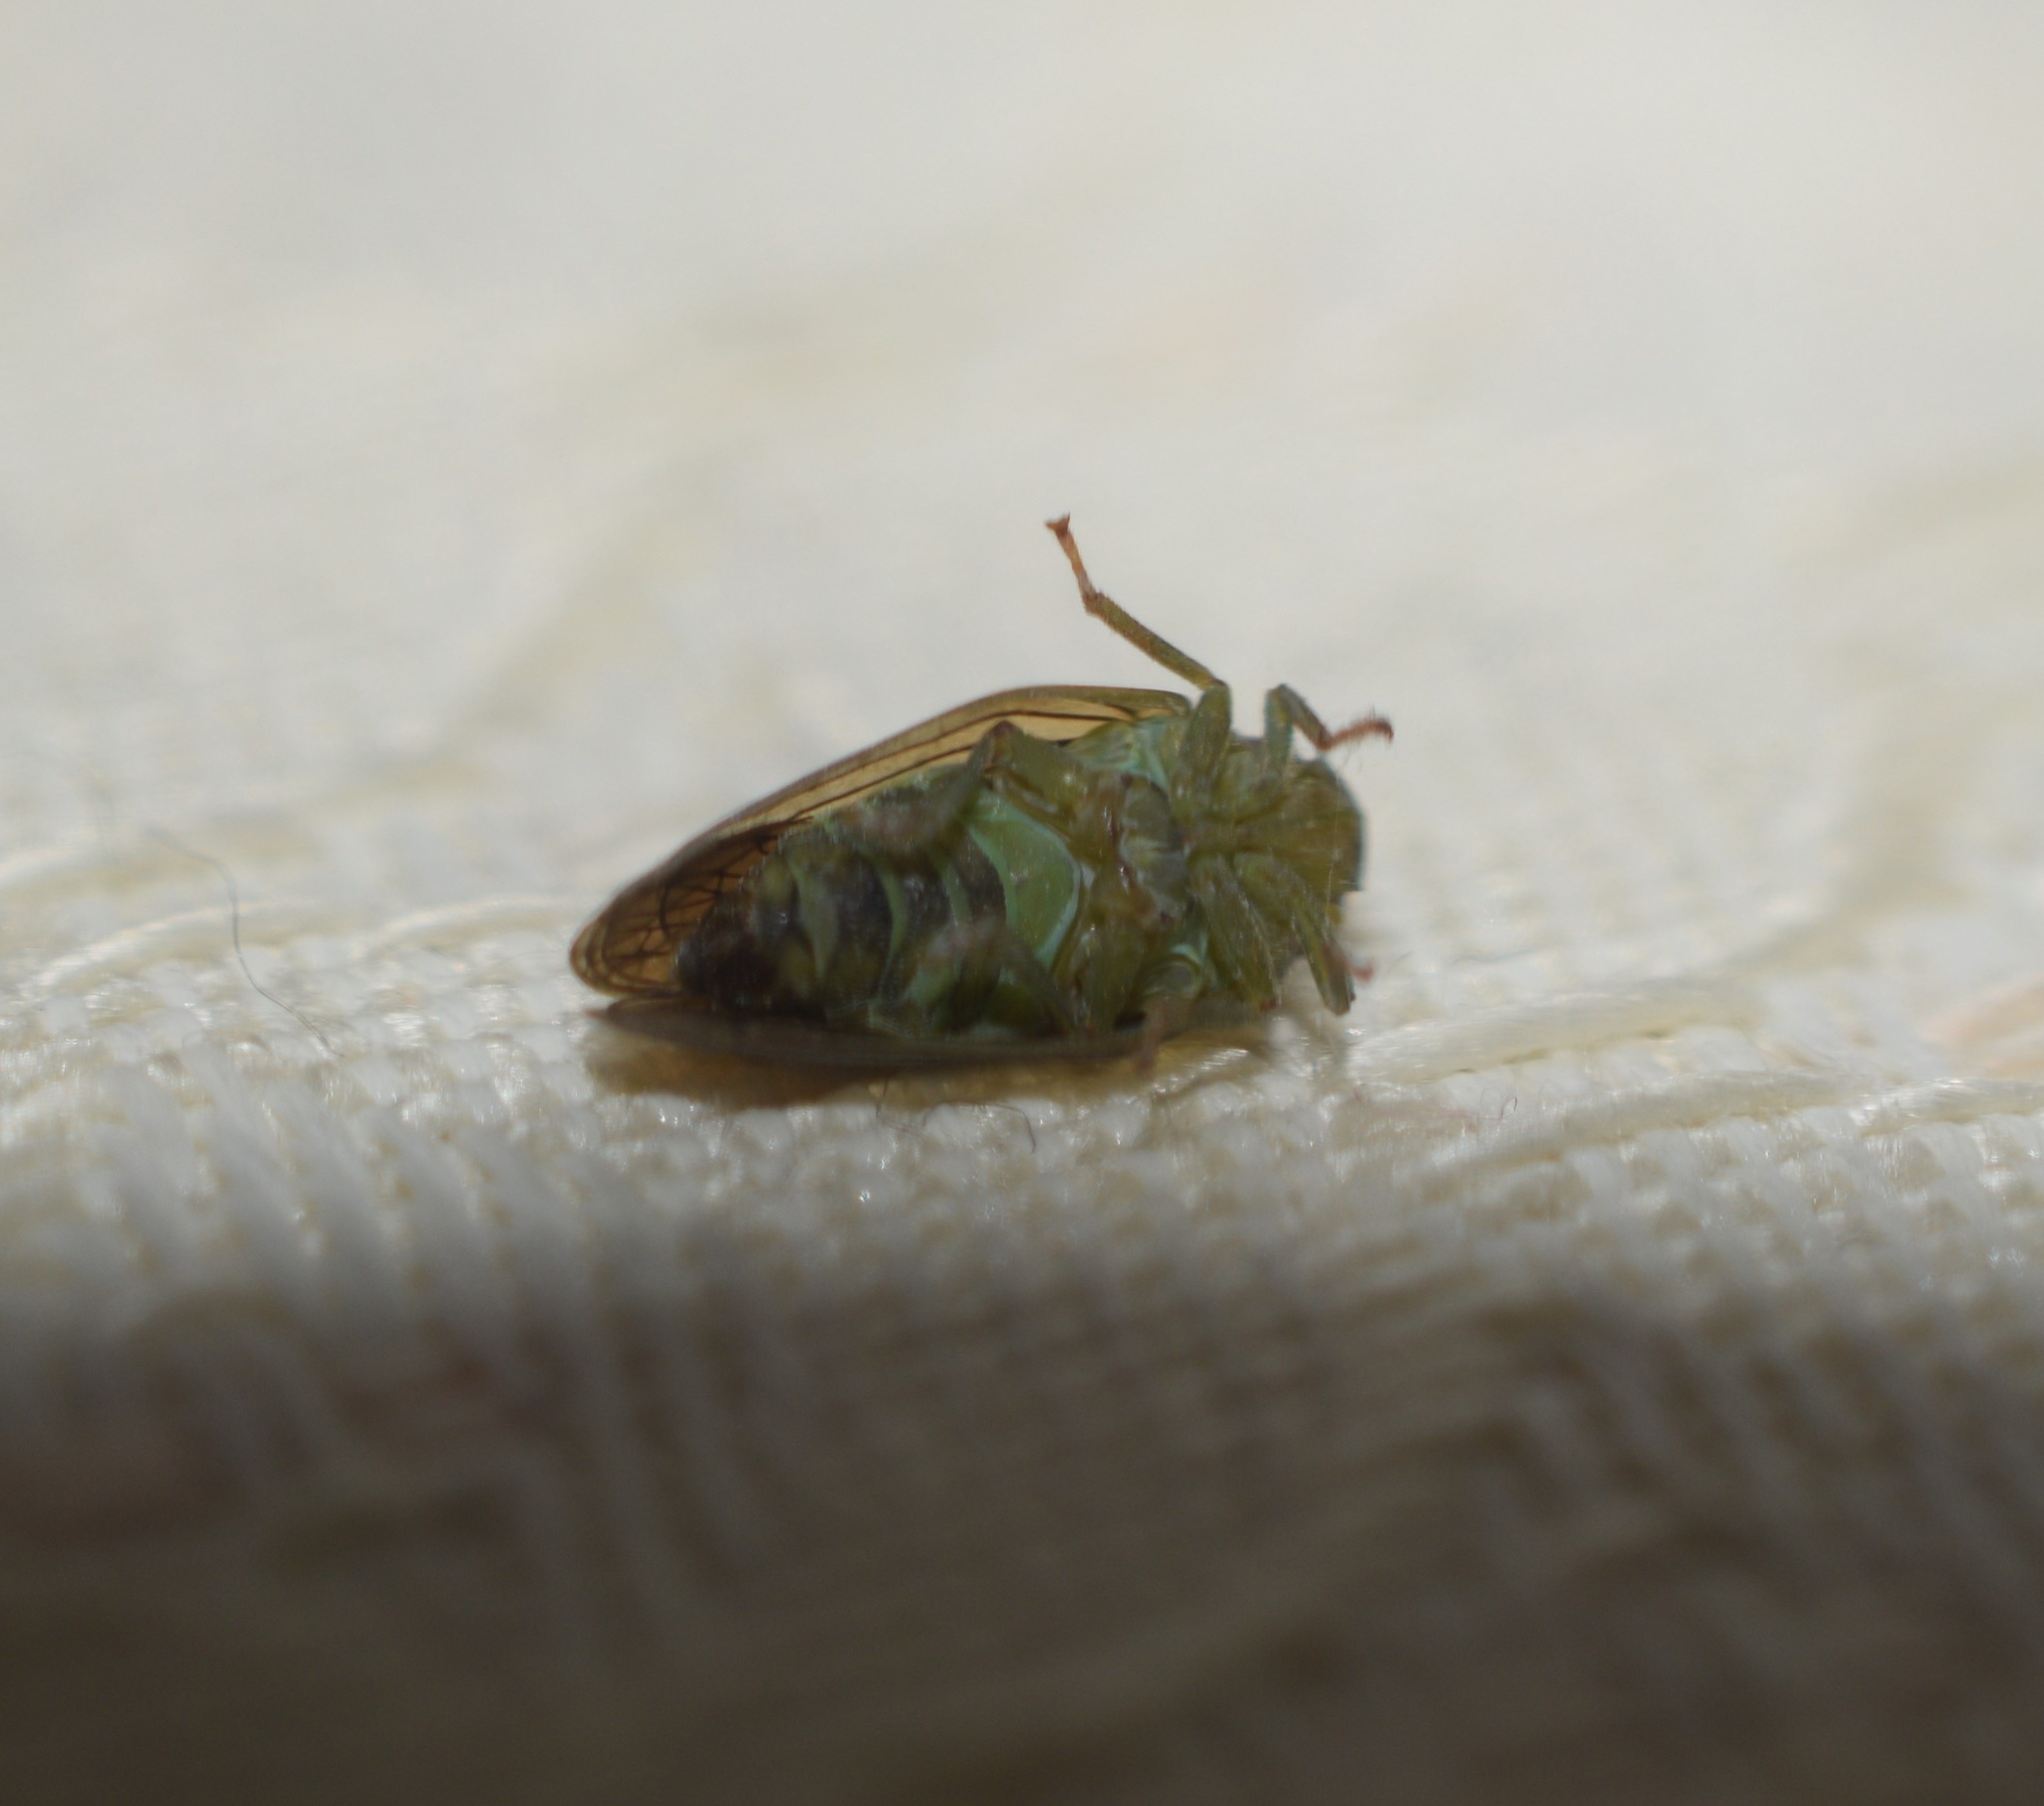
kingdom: Animalia
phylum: Arthropoda
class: Insecta
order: Hemiptera
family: Issidae
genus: Aplos
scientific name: Aplos simplex
